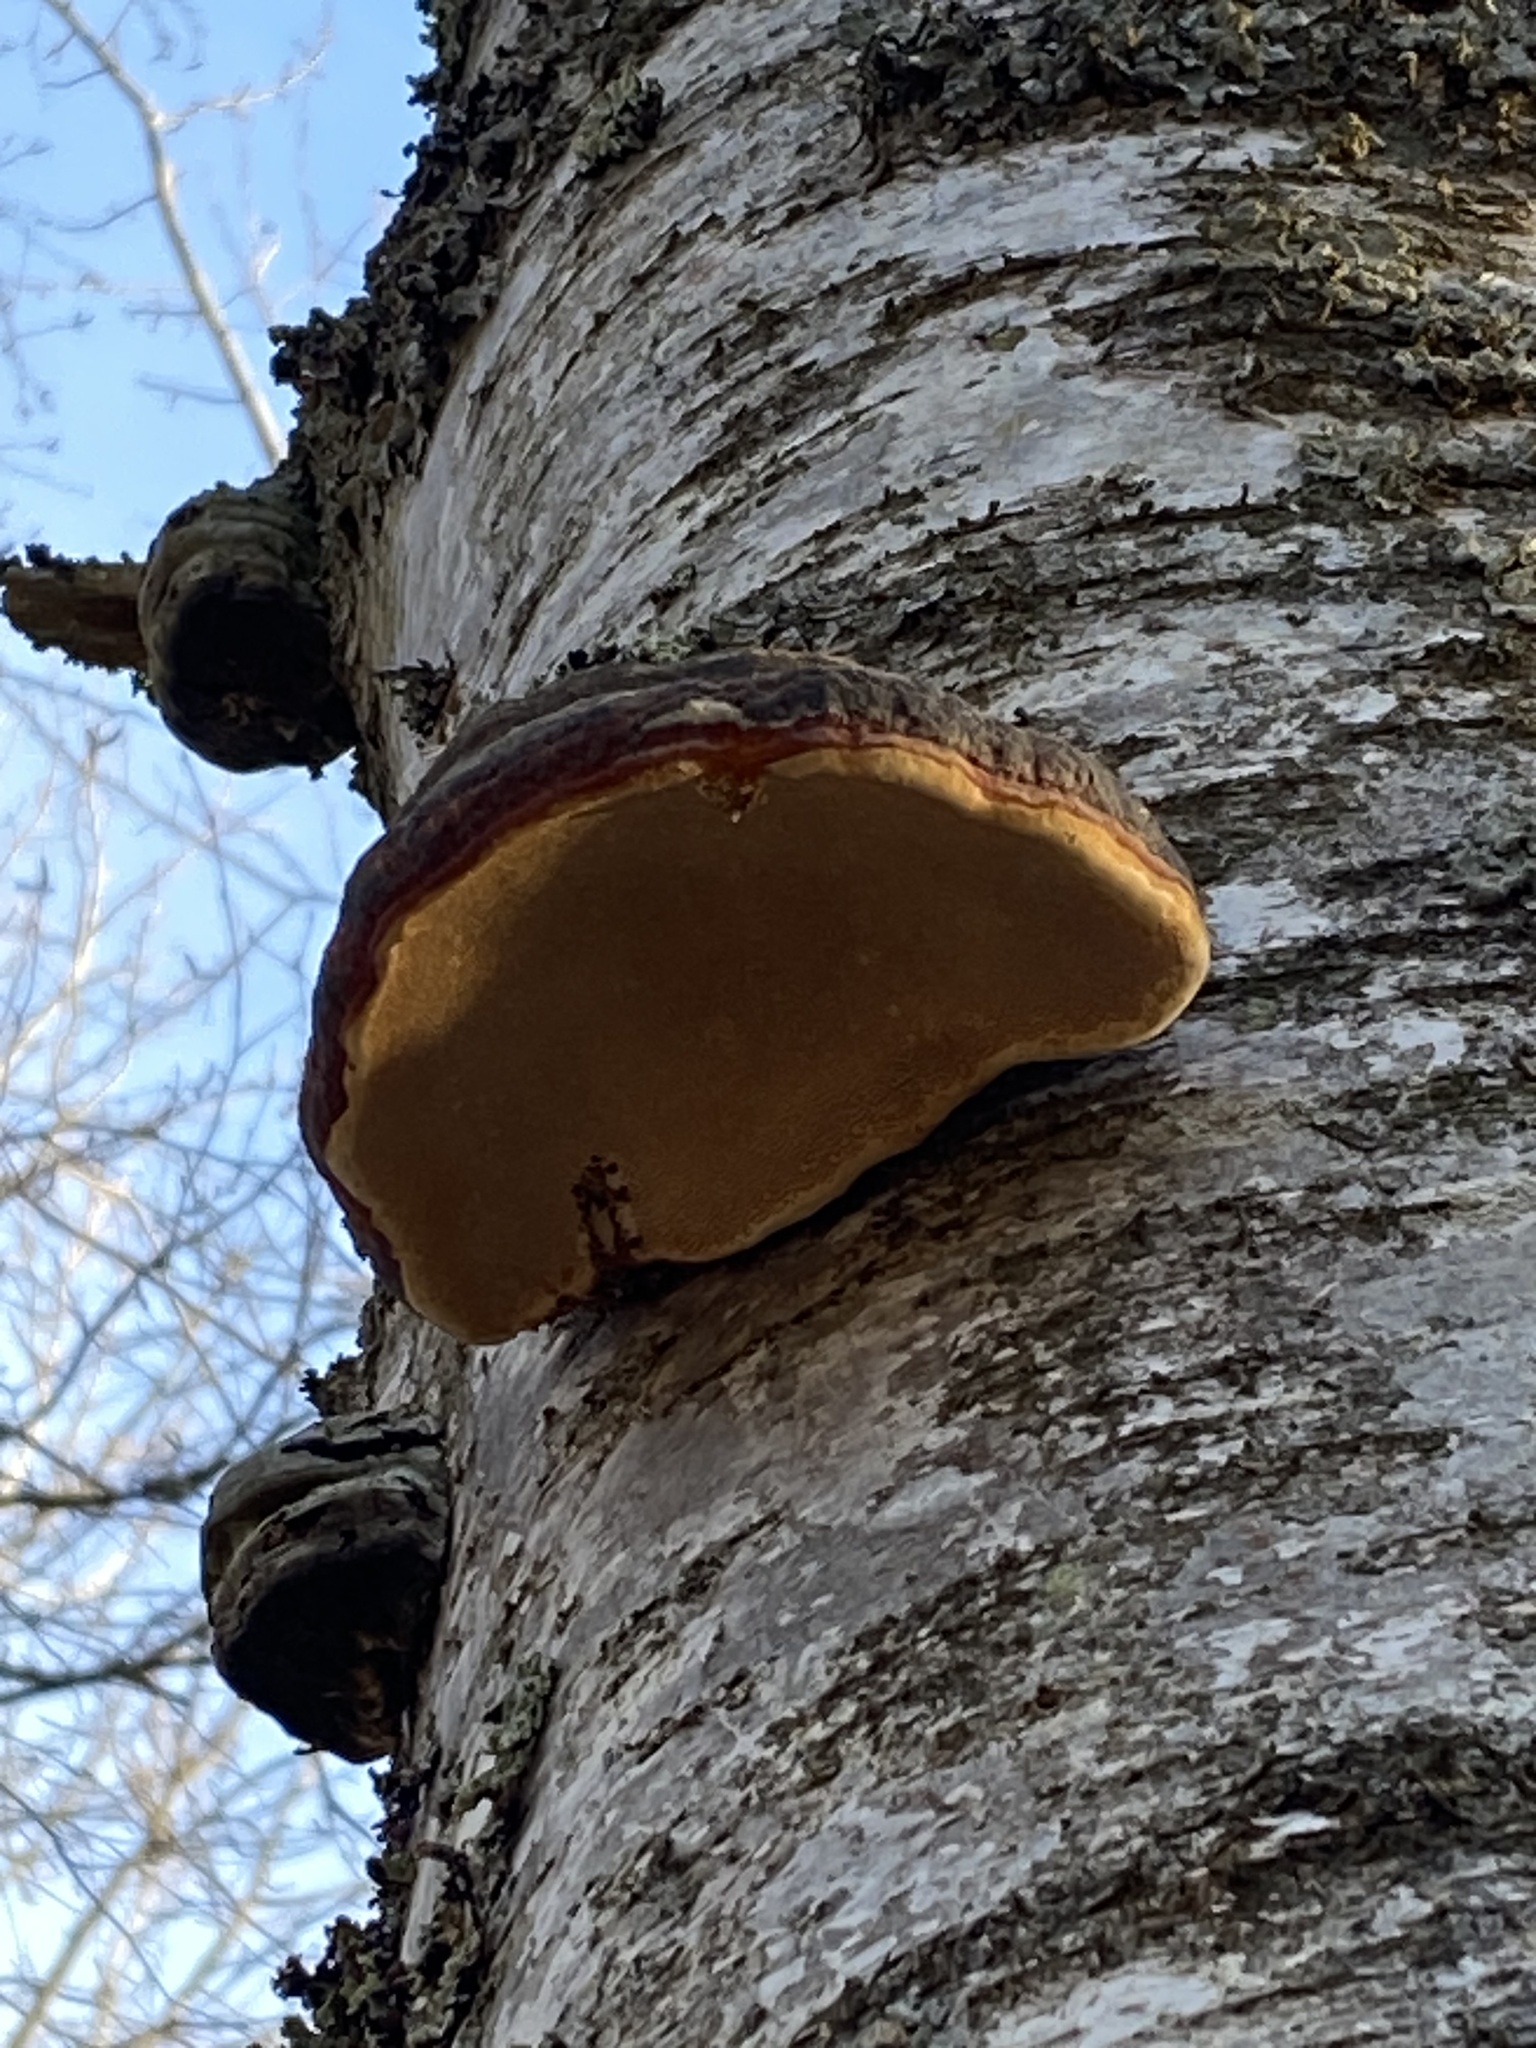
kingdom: Fungi
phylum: Basidiomycota
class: Agaricomycetes
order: Polyporales
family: Polyporaceae
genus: Fomes
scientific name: Fomes fomentarius
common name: Hoof fungus
